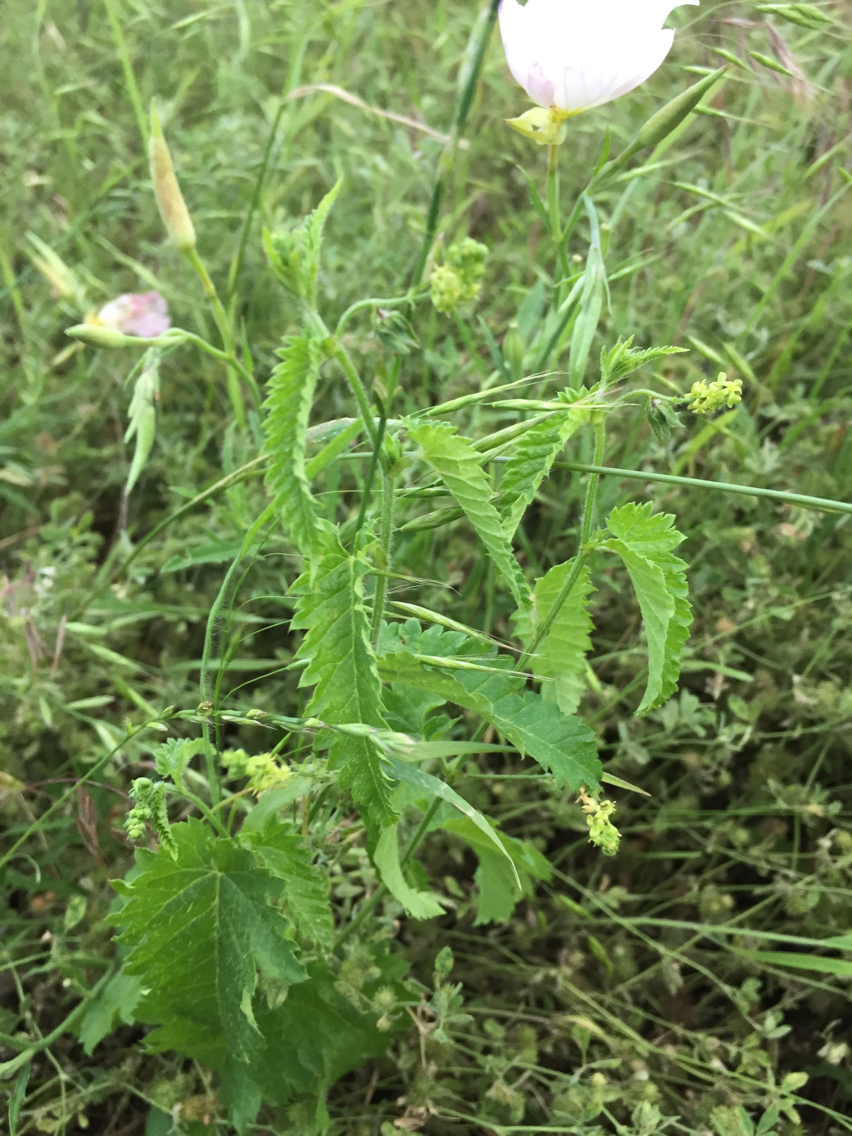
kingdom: Plantae
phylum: Tracheophyta
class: Magnoliopsida
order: Malpighiales
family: Euphorbiaceae
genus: Tragia
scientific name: Tragia ramosa
